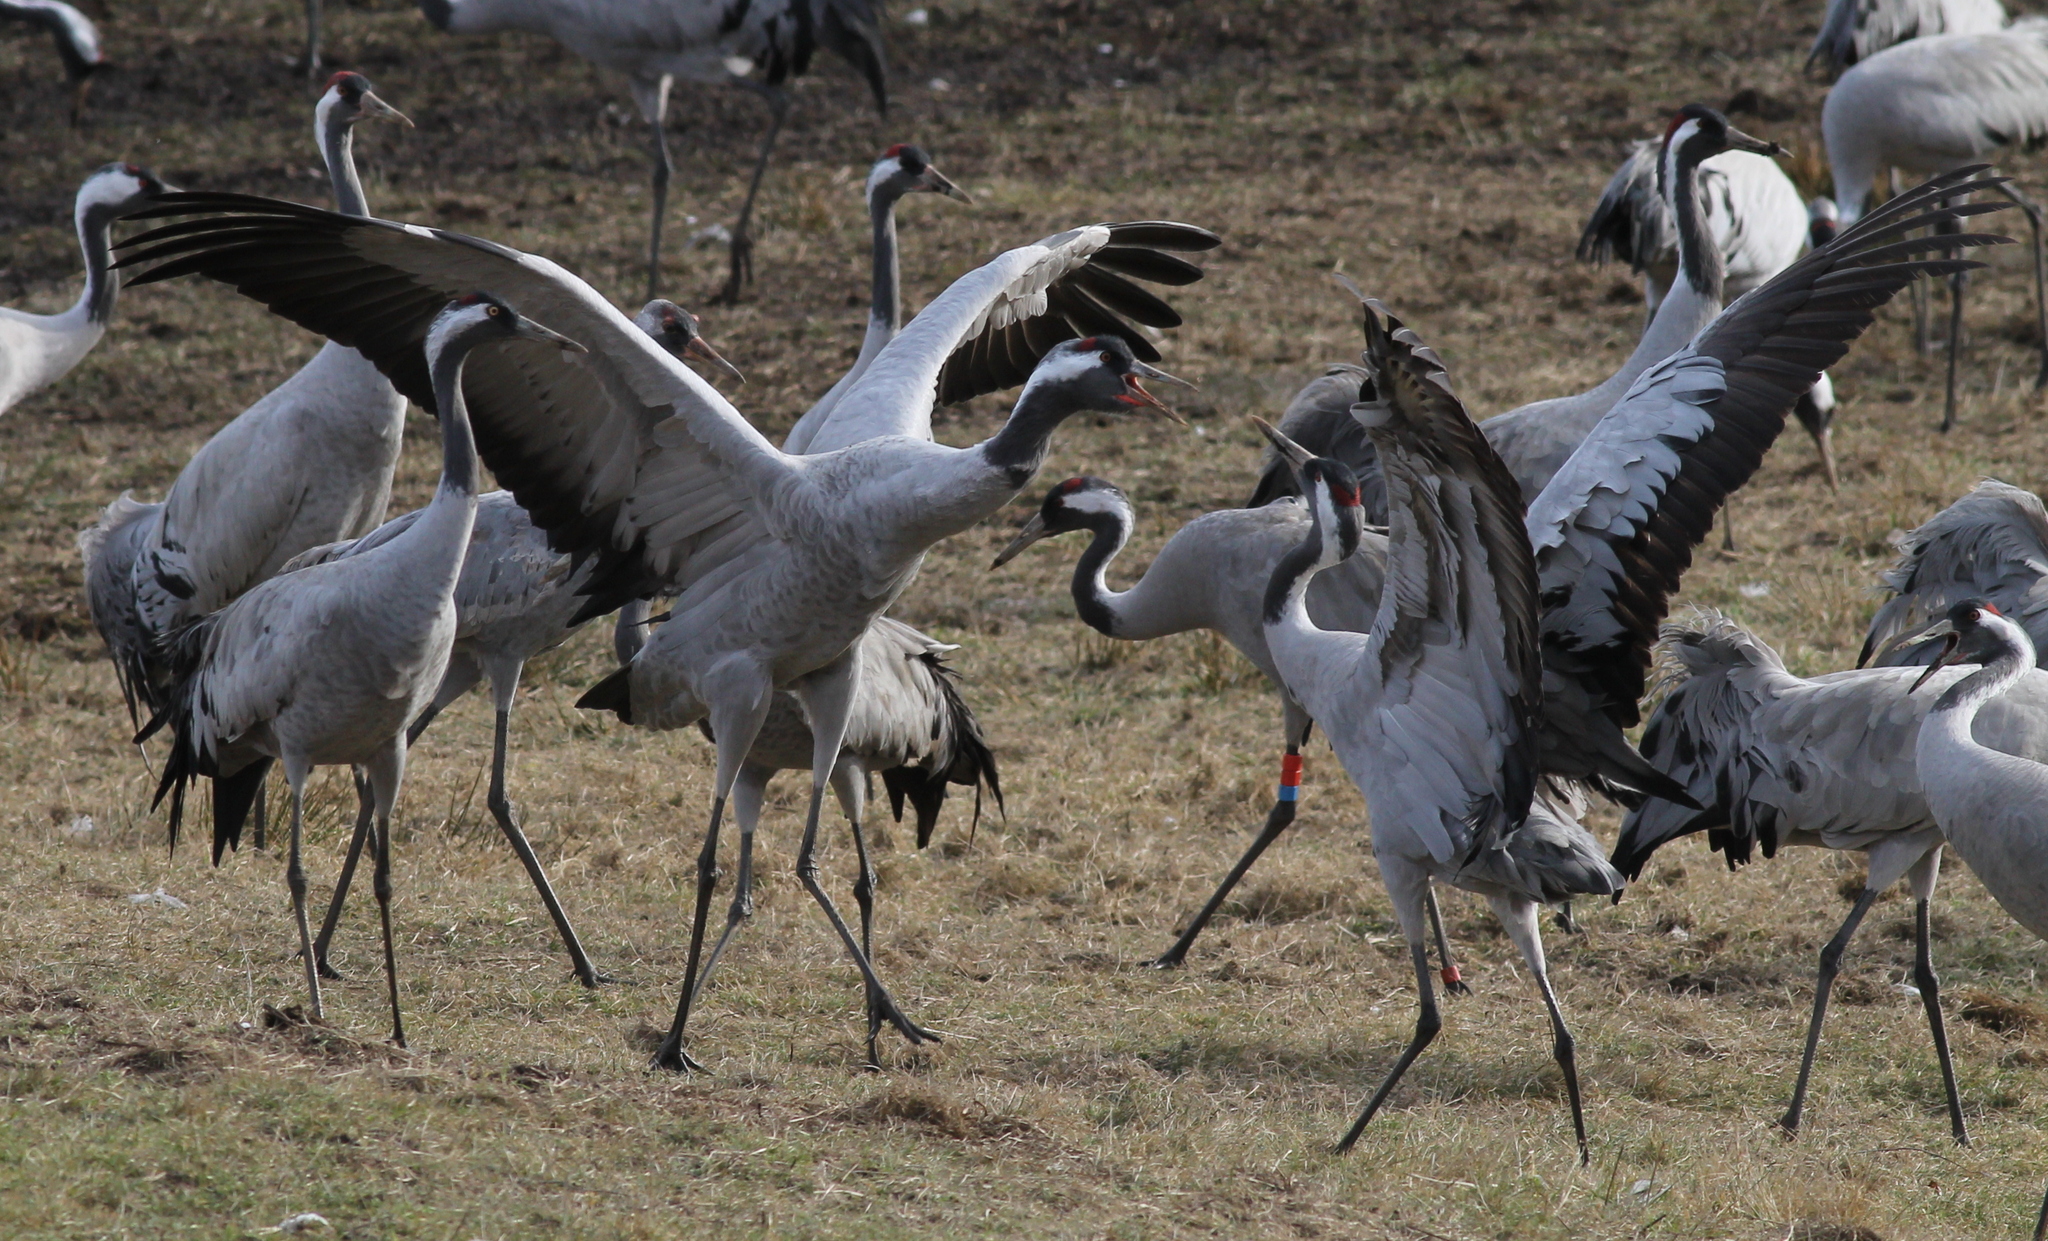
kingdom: Animalia
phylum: Chordata
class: Aves
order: Gruiformes
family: Gruidae
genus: Grus
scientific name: Grus grus
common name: Common crane
